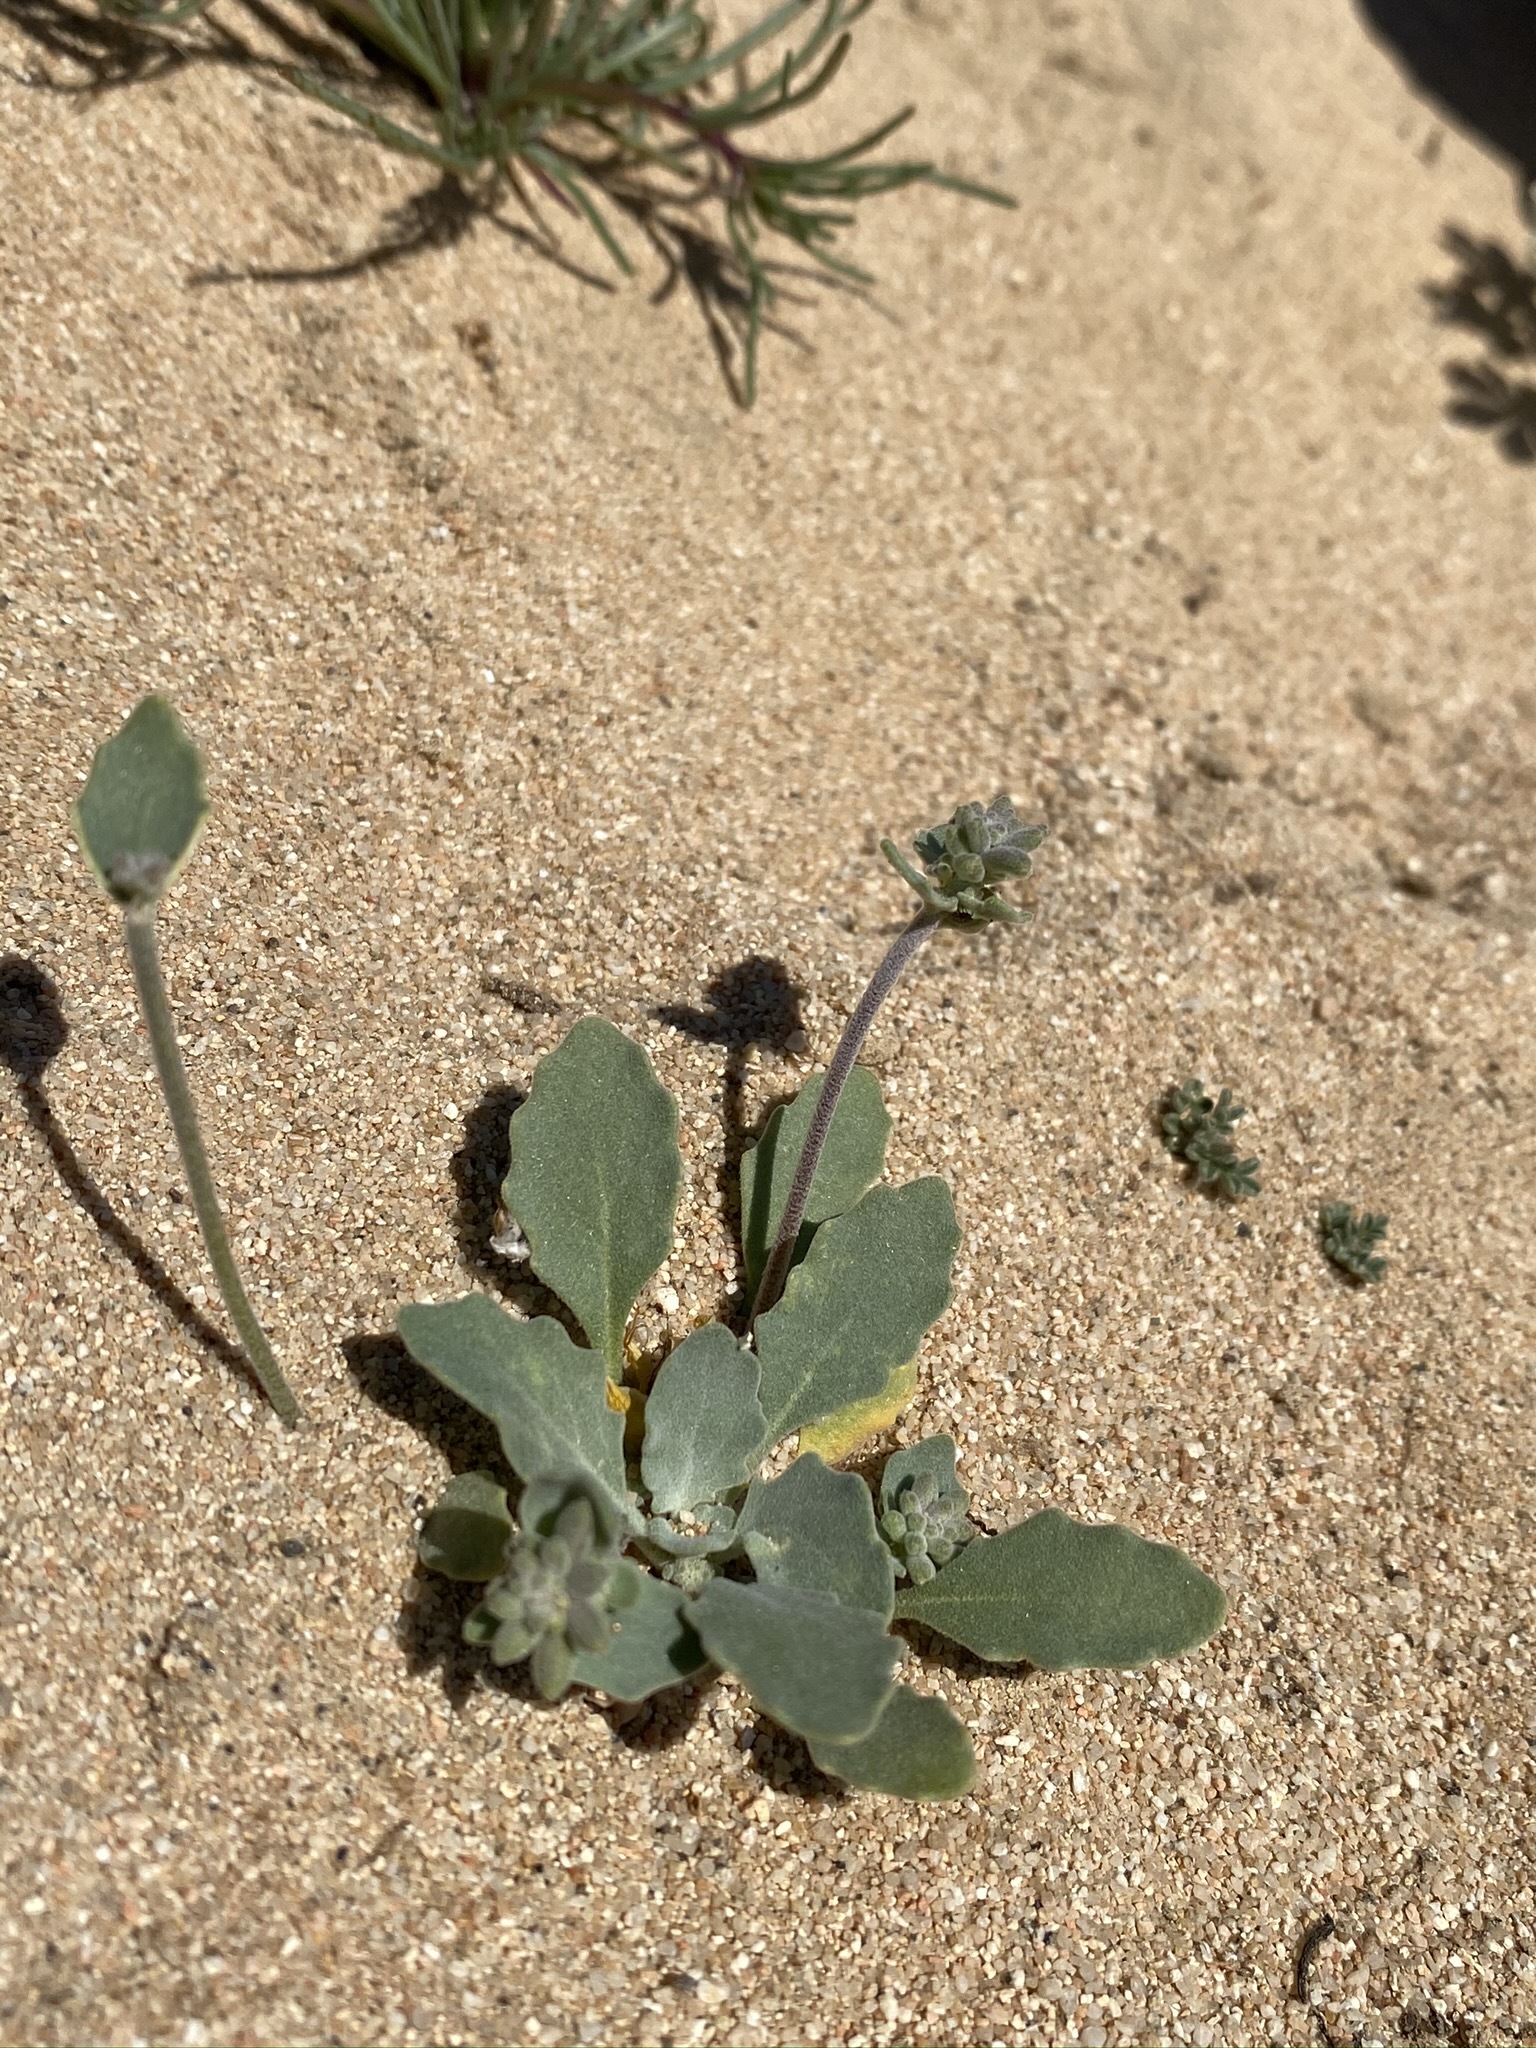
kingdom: Plantae
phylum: Tracheophyta
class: Magnoliopsida
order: Brassicales
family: Brassicaceae
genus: Dithyrea
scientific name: Dithyrea californica
